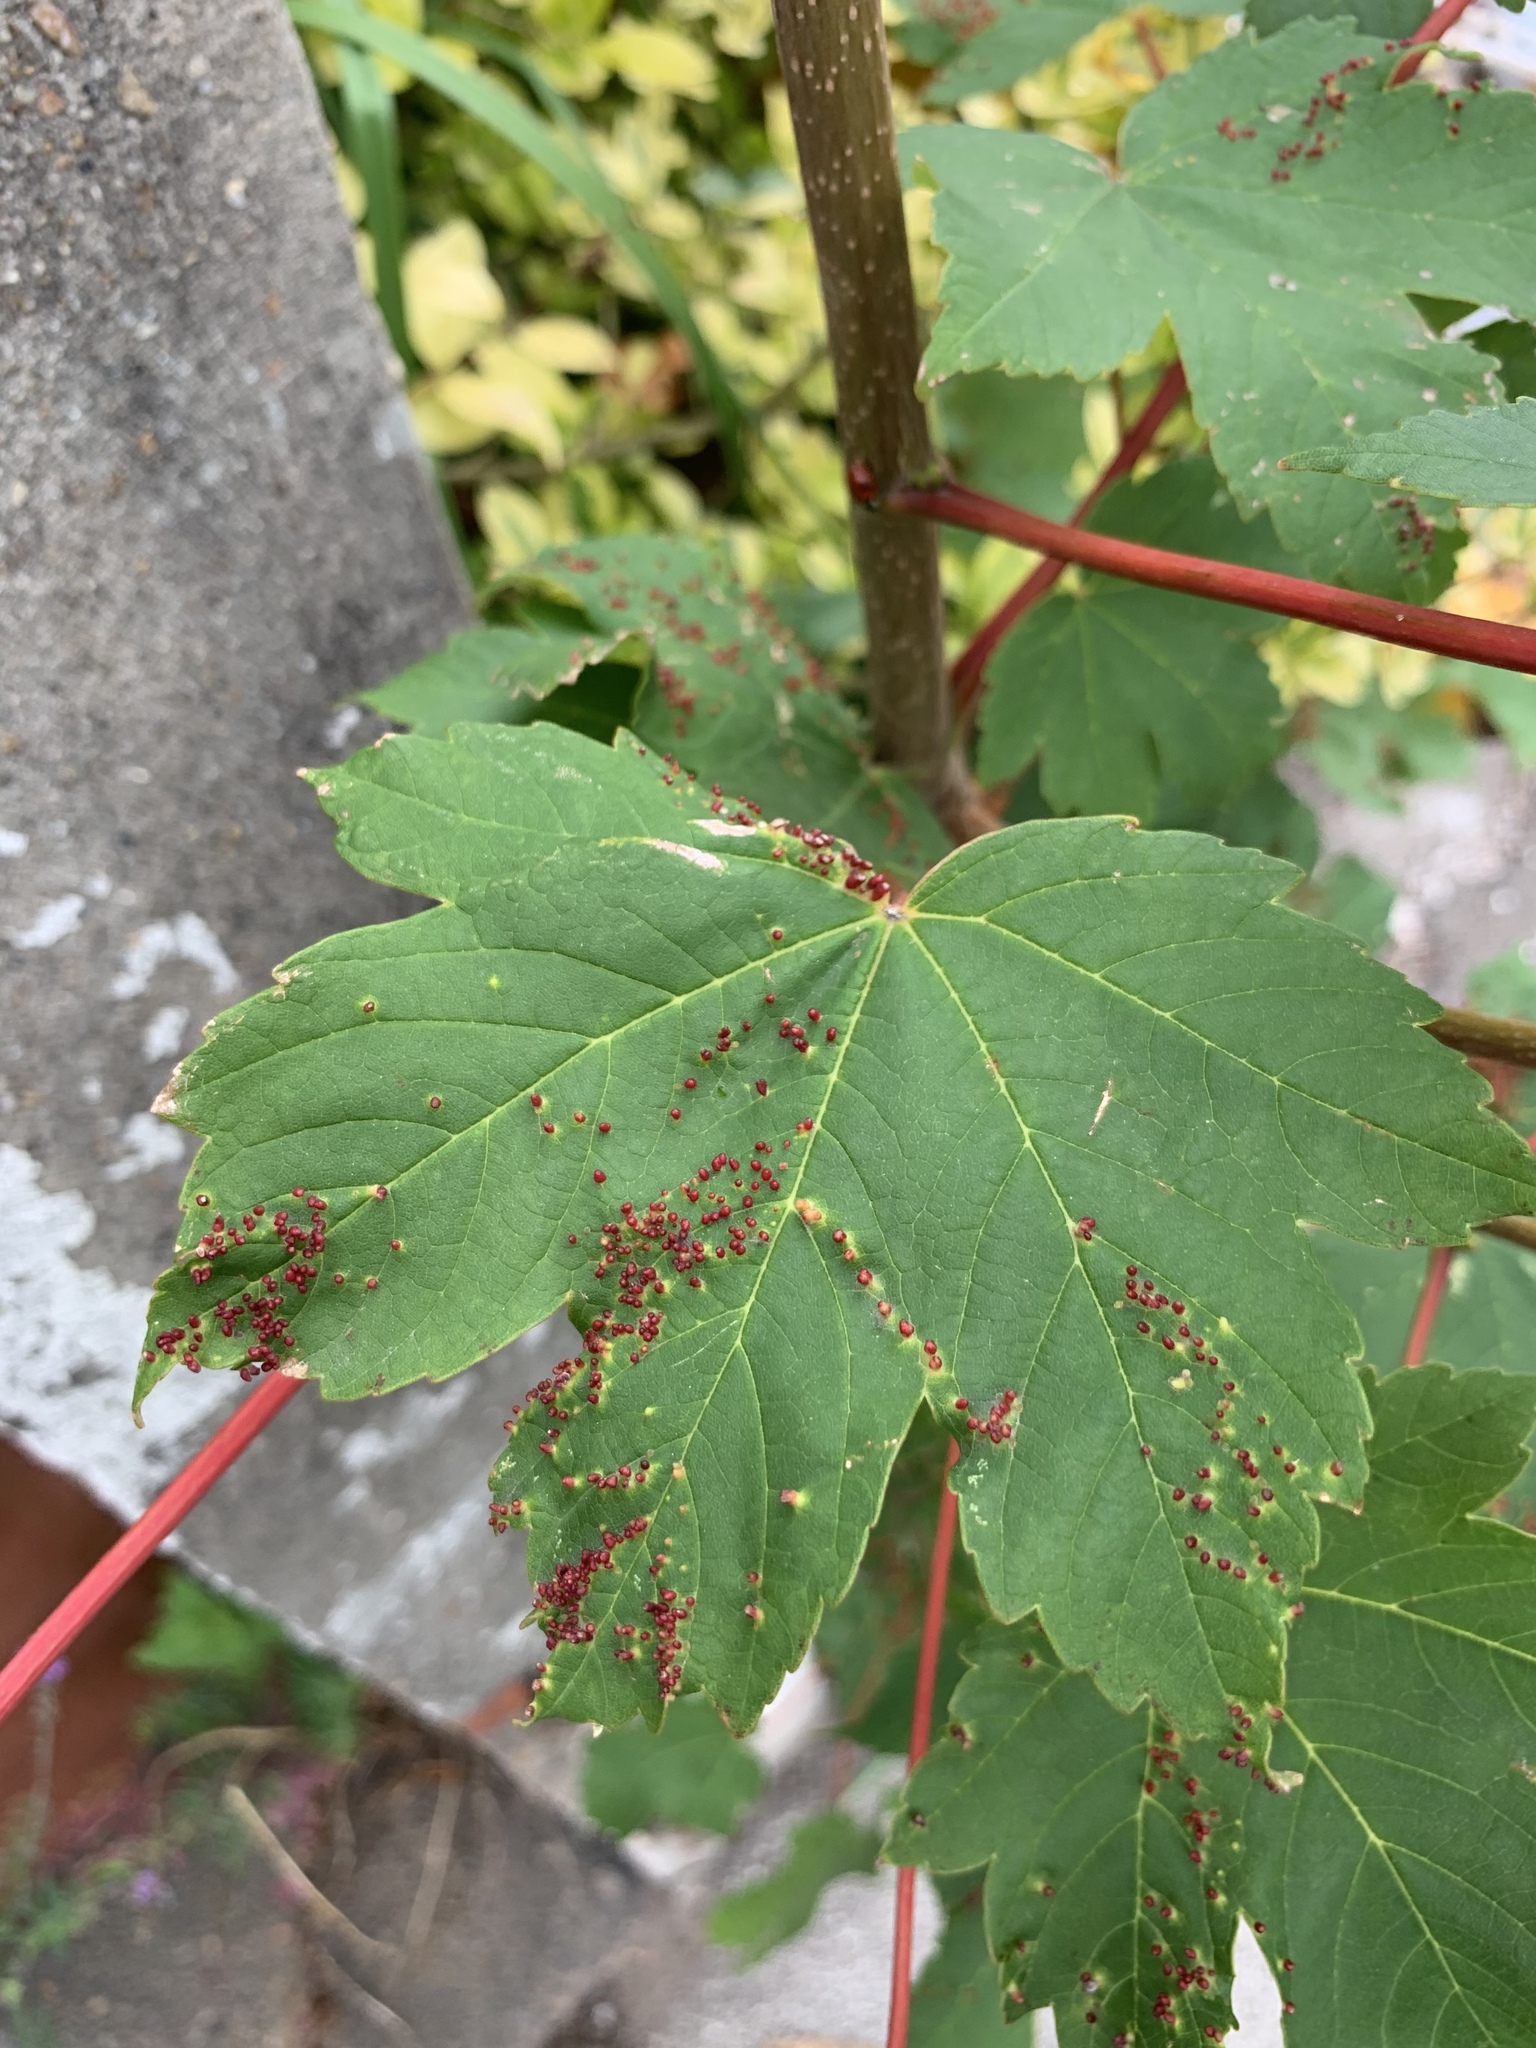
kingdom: Animalia
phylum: Arthropoda
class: Arachnida
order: Trombidiformes
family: Eriophyidae
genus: Aceria
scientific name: Aceria cephaloneus
